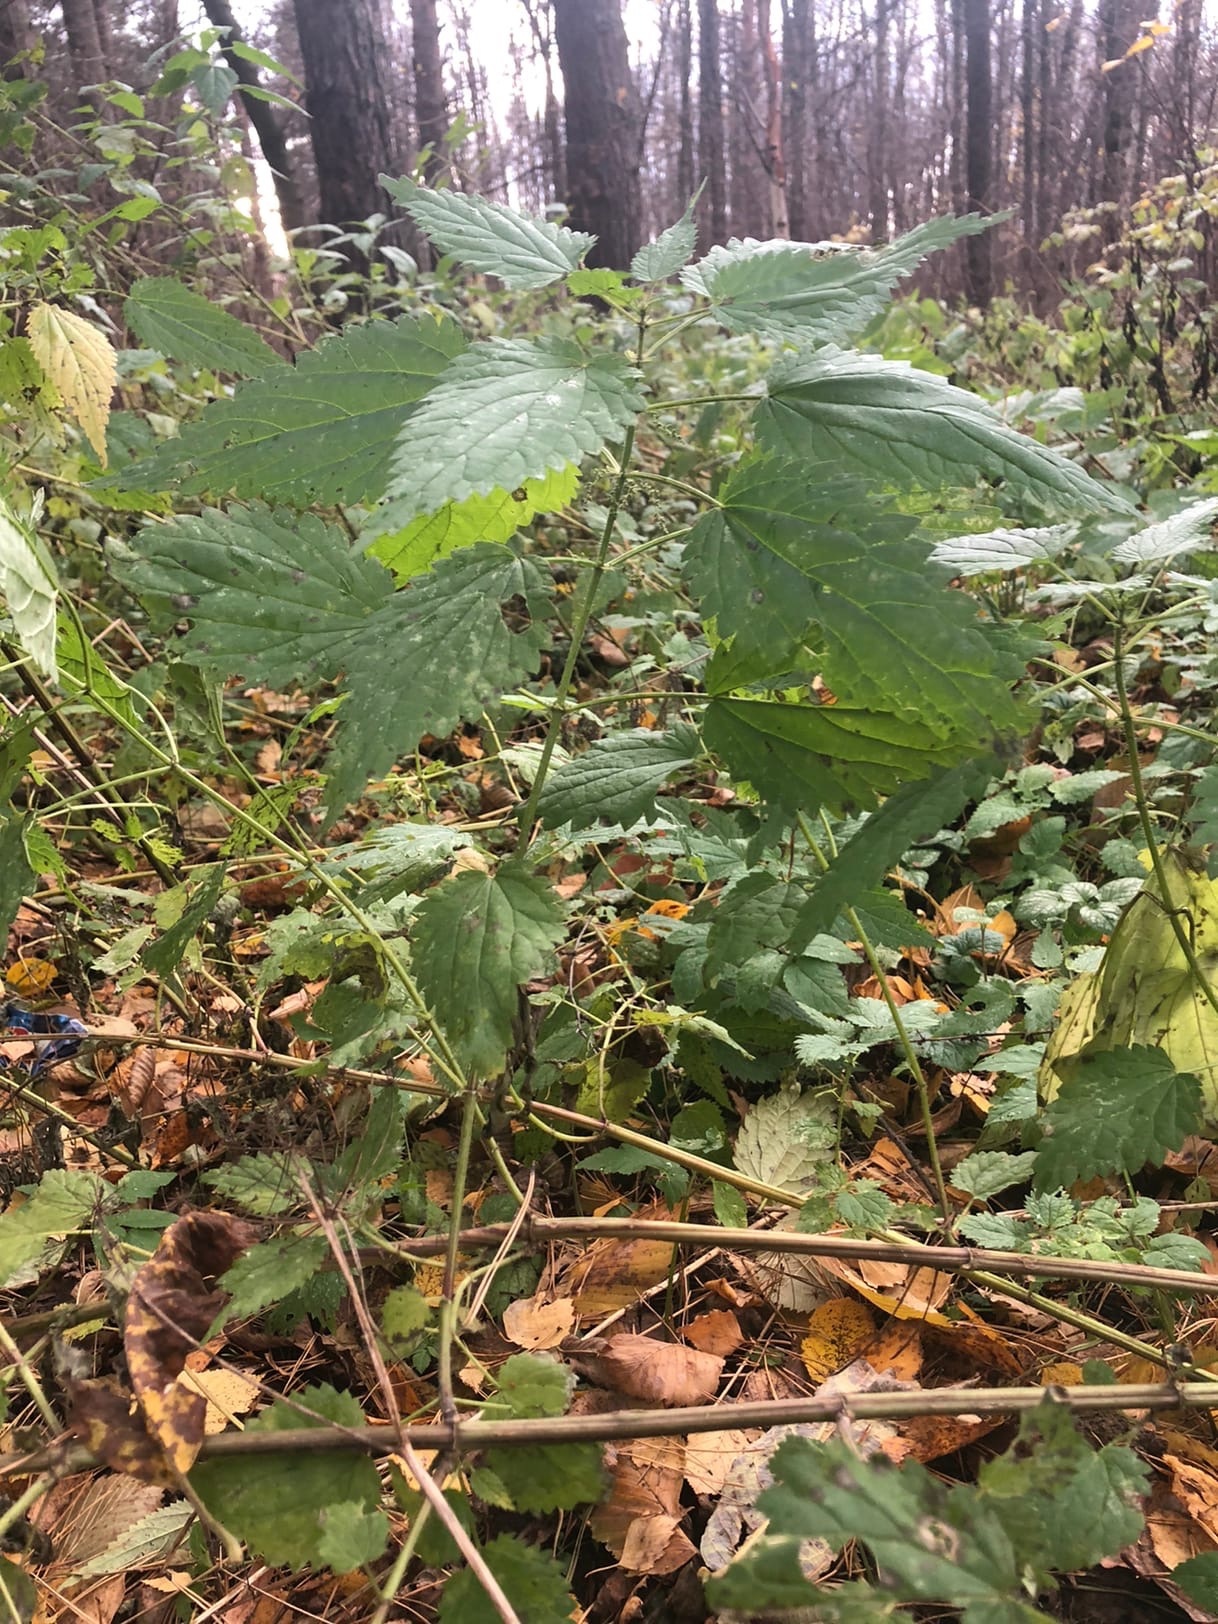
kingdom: Plantae
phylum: Tracheophyta
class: Magnoliopsida
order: Rosales
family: Urticaceae
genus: Urtica
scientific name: Urtica dioica
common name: Common nettle
